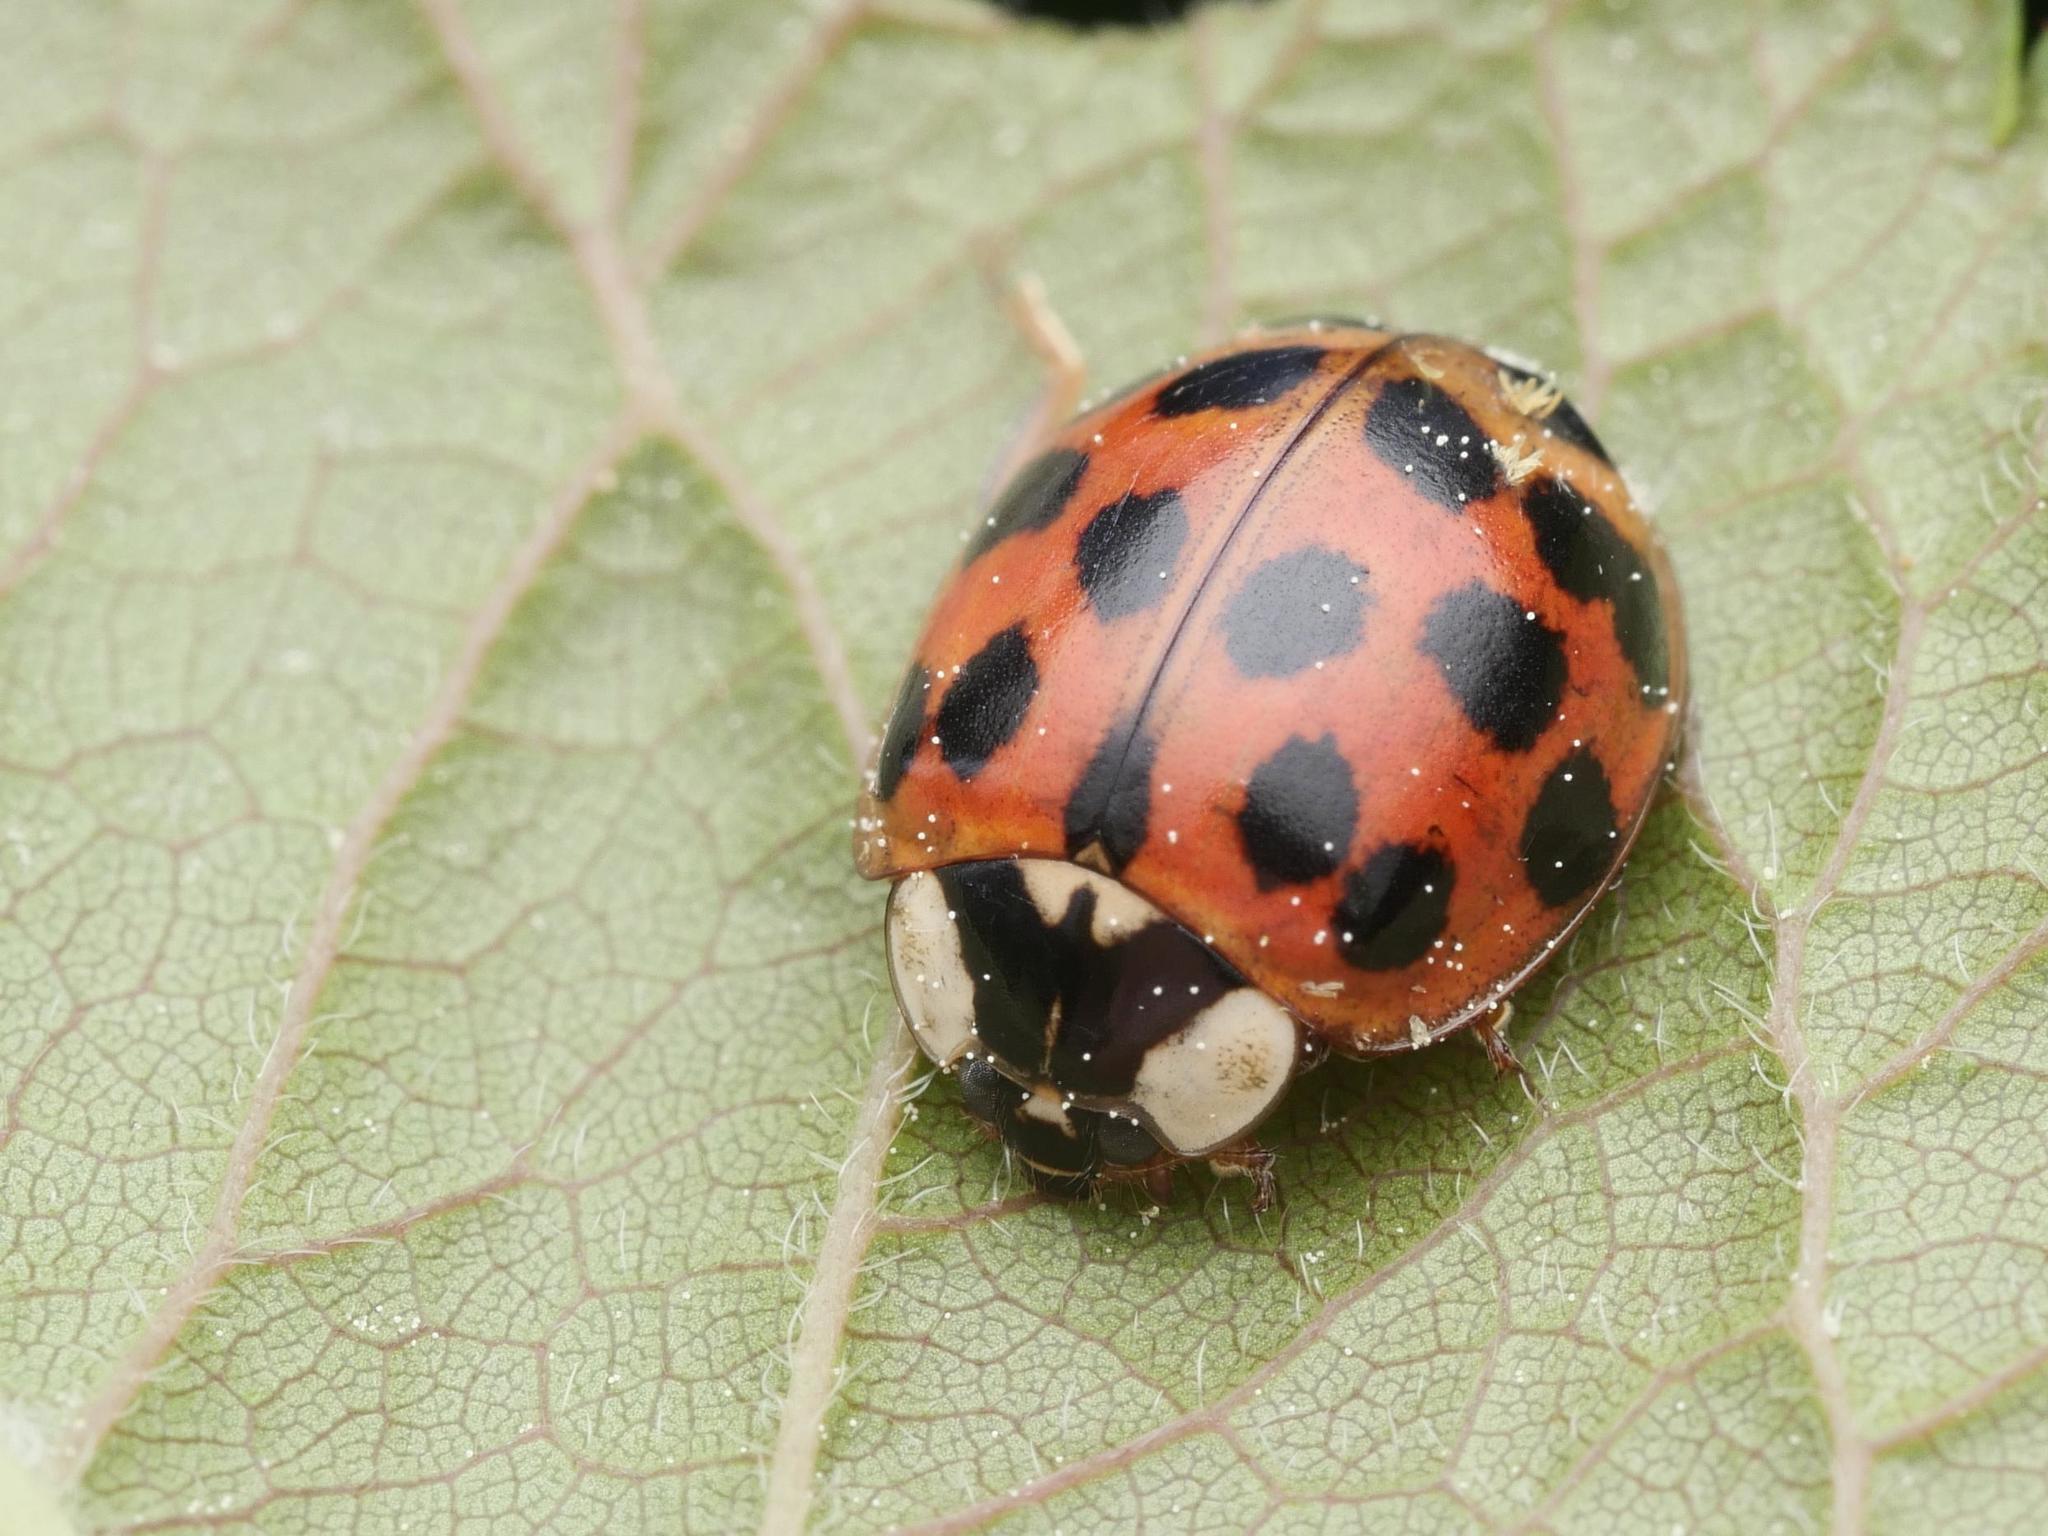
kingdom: Animalia
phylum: Arthropoda
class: Insecta
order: Coleoptera
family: Coccinellidae
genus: Harmonia
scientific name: Harmonia axyridis
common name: Harlequin ladybird
